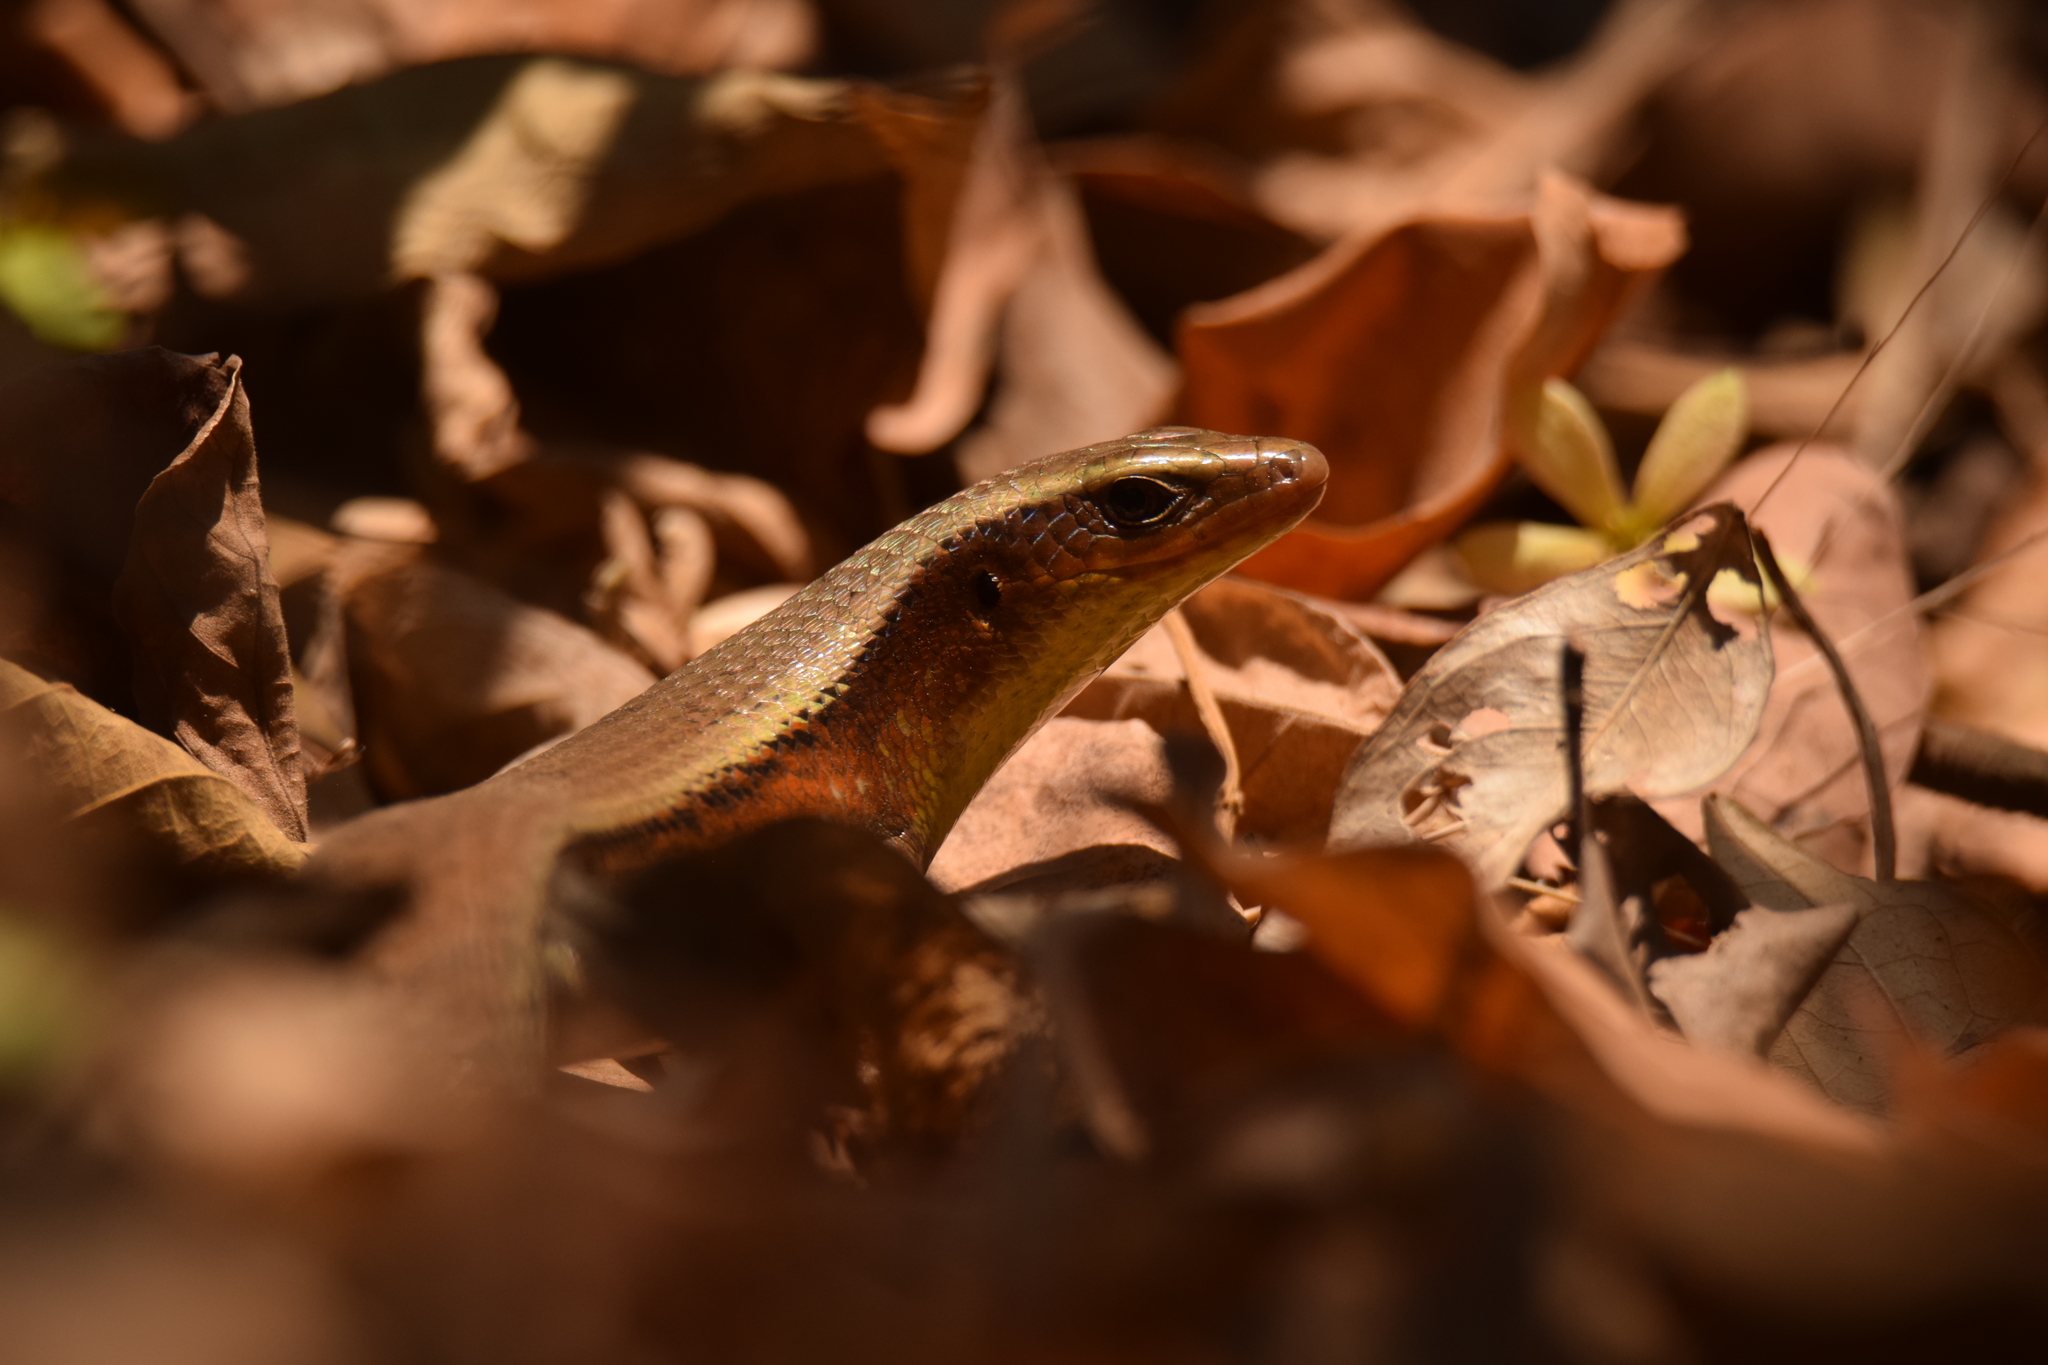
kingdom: Animalia
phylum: Chordata
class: Squamata
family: Scincidae
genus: Eutropis
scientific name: Eutropis multifasciata
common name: Common mabuya
